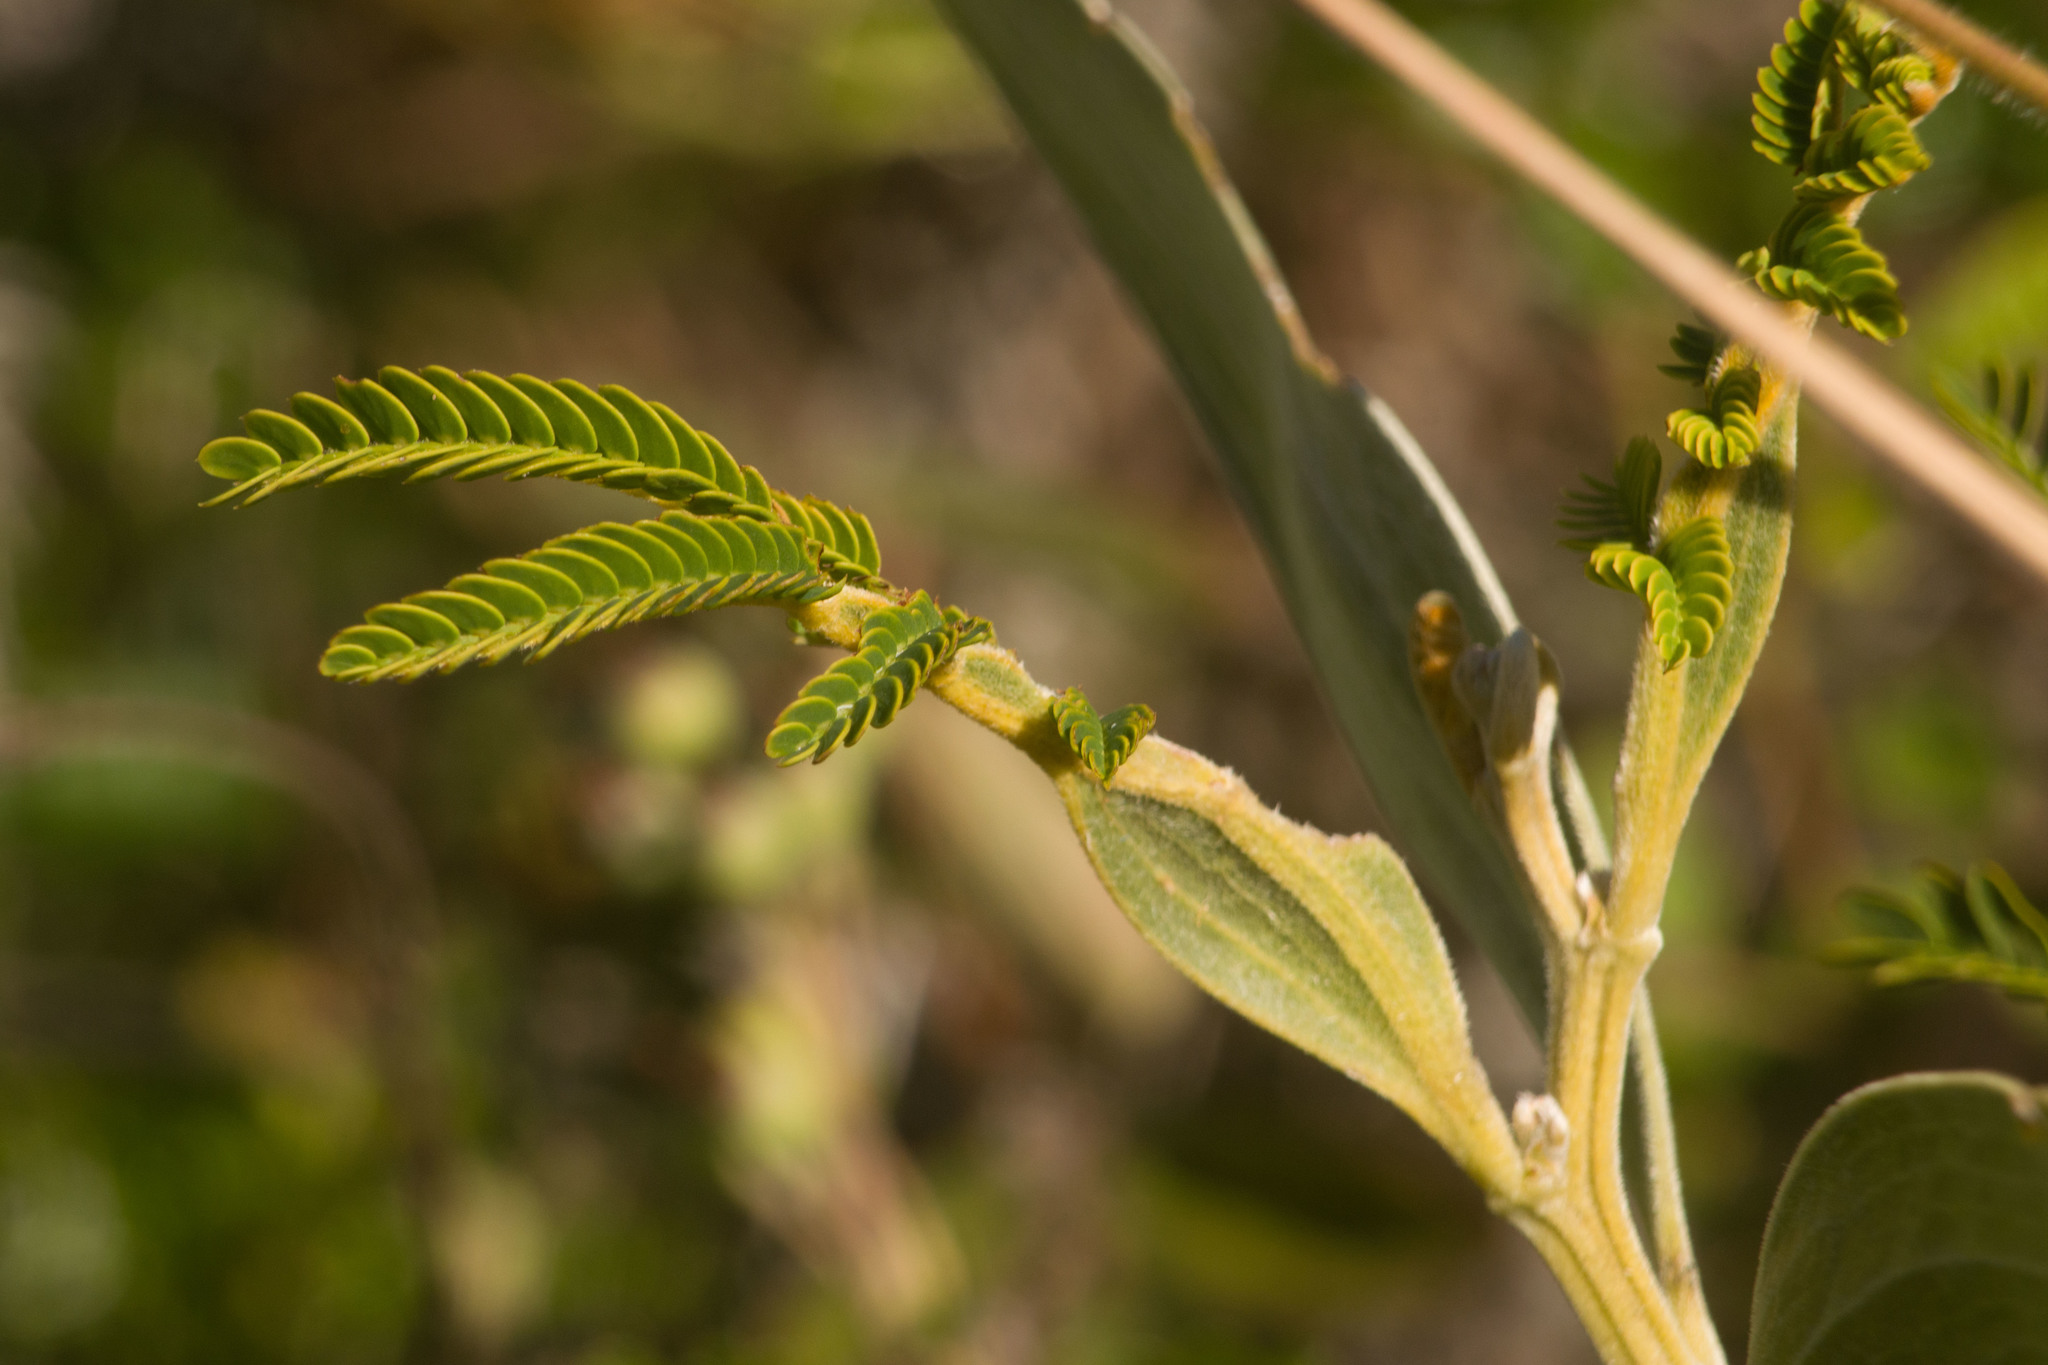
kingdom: Plantae
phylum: Tracheophyta
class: Magnoliopsida
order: Fabales
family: Fabaceae
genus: Acacia
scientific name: Acacia koa
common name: Gray koa
